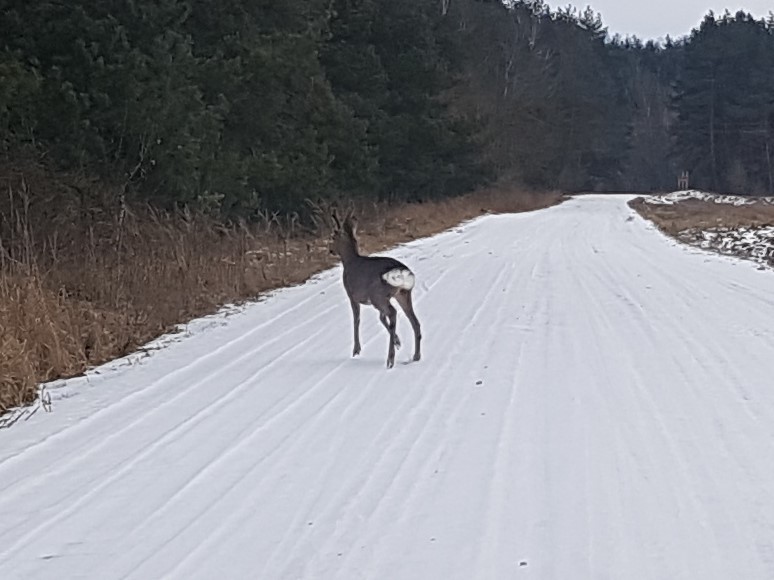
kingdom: Animalia
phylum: Chordata
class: Mammalia
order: Artiodactyla
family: Cervidae
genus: Capreolus
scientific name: Capreolus capreolus
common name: Western roe deer
